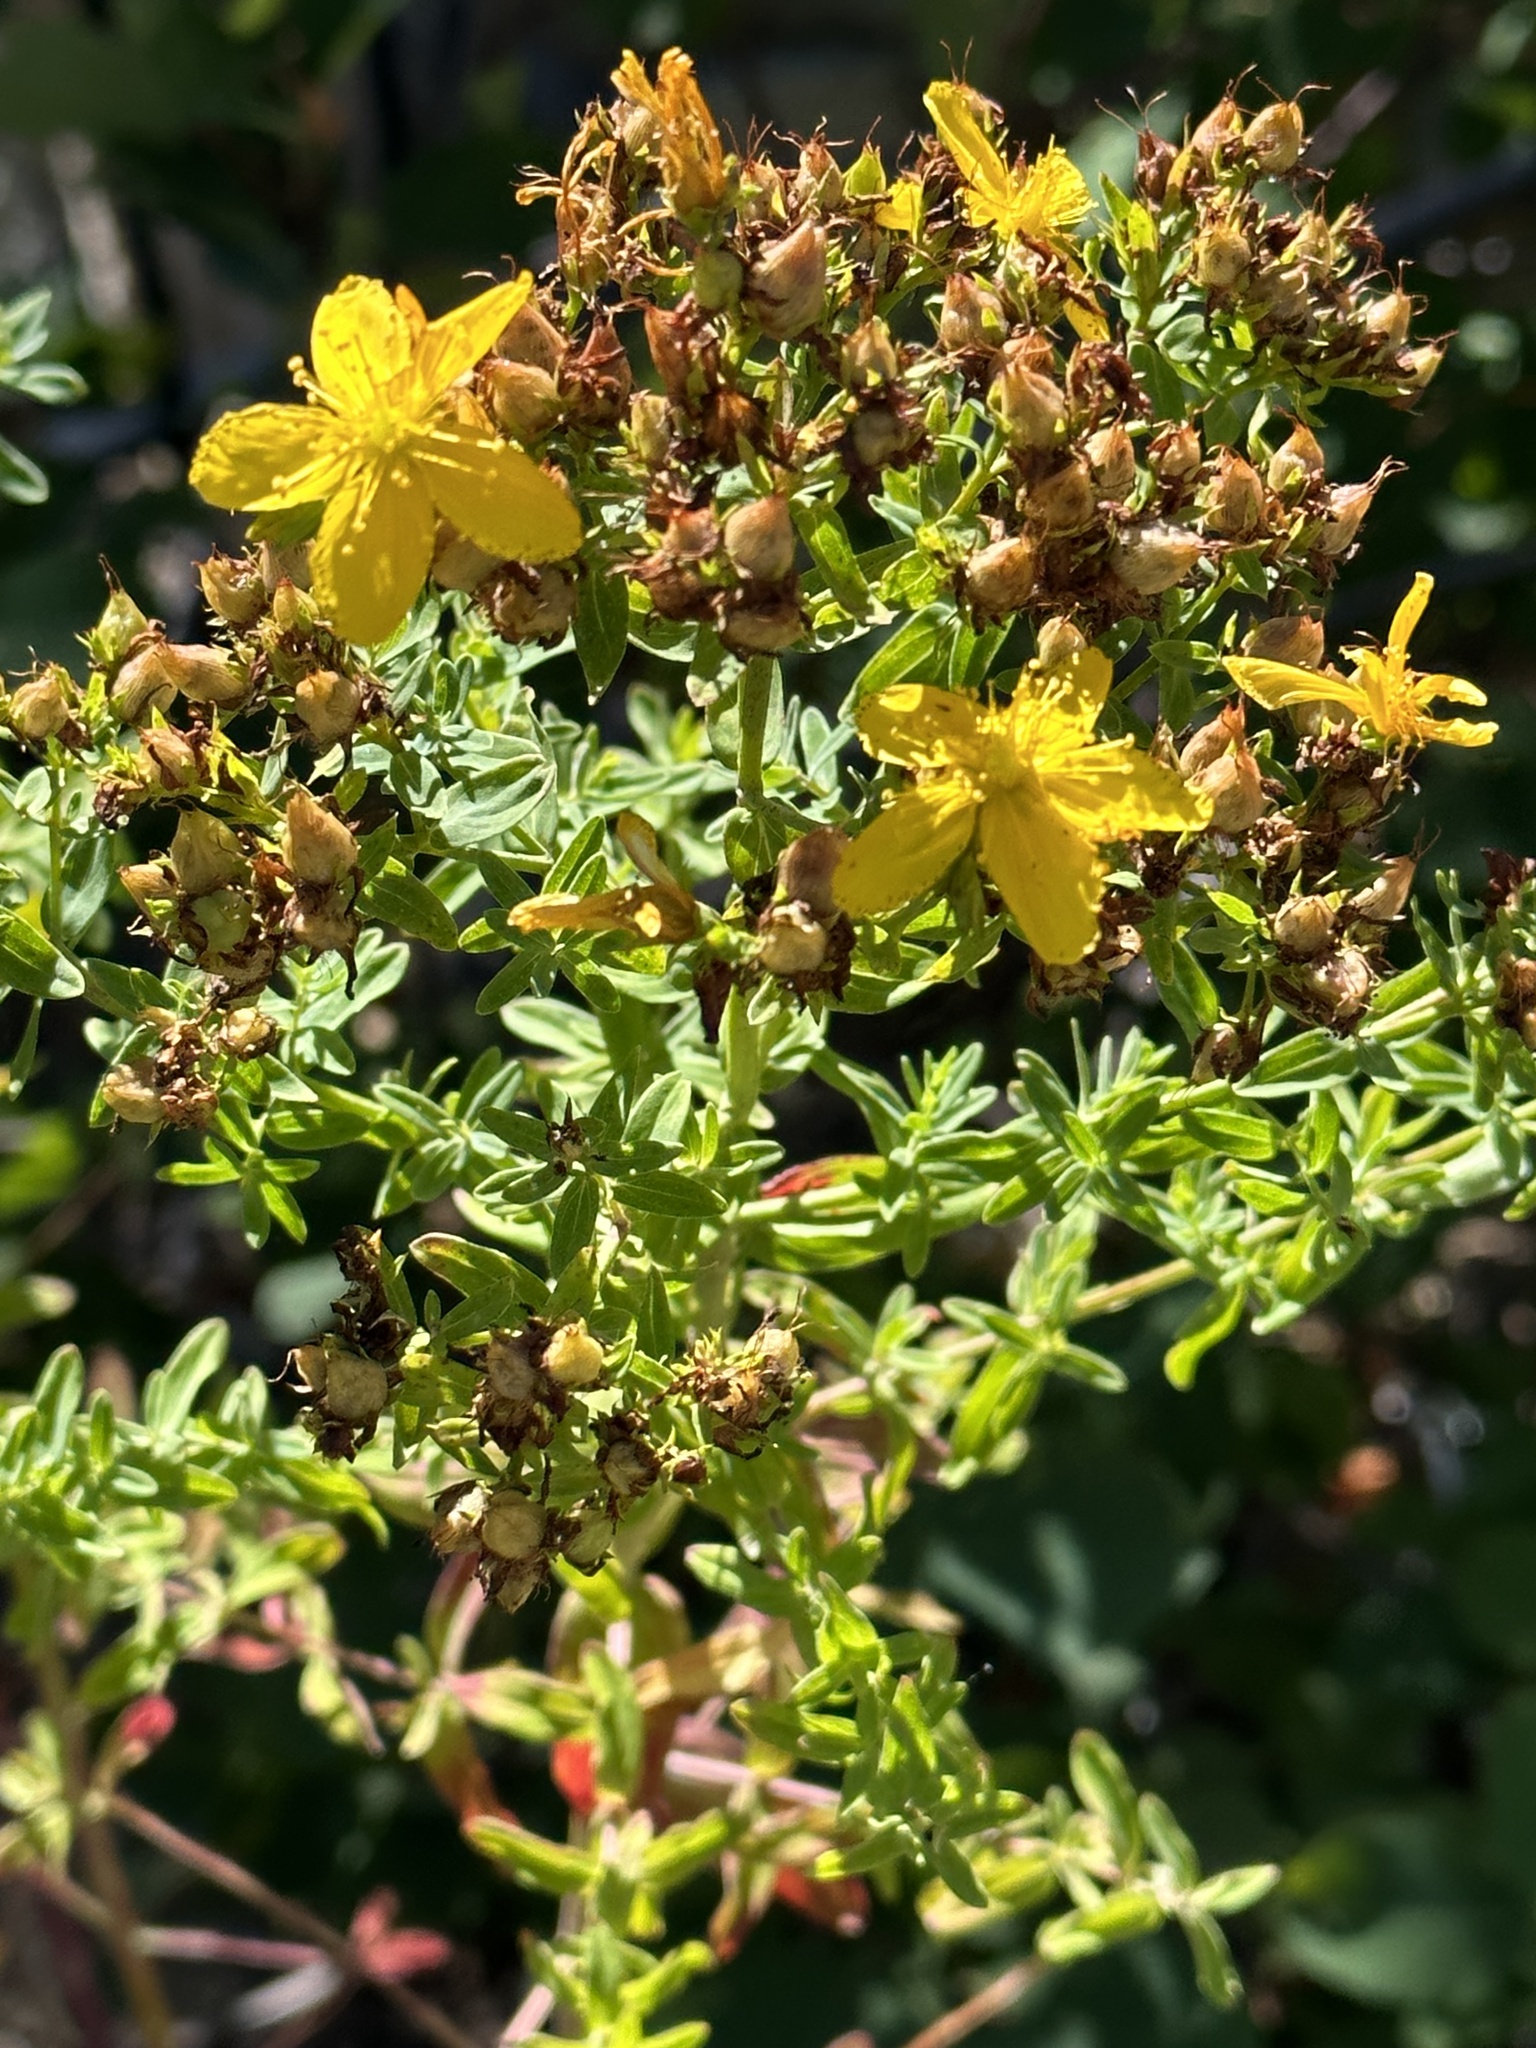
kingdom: Plantae
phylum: Tracheophyta
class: Magnoliopsida
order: Malpighiales
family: Hypericaceae
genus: Hypericum
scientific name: Hypericum perforatum
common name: Common st. johnswort
